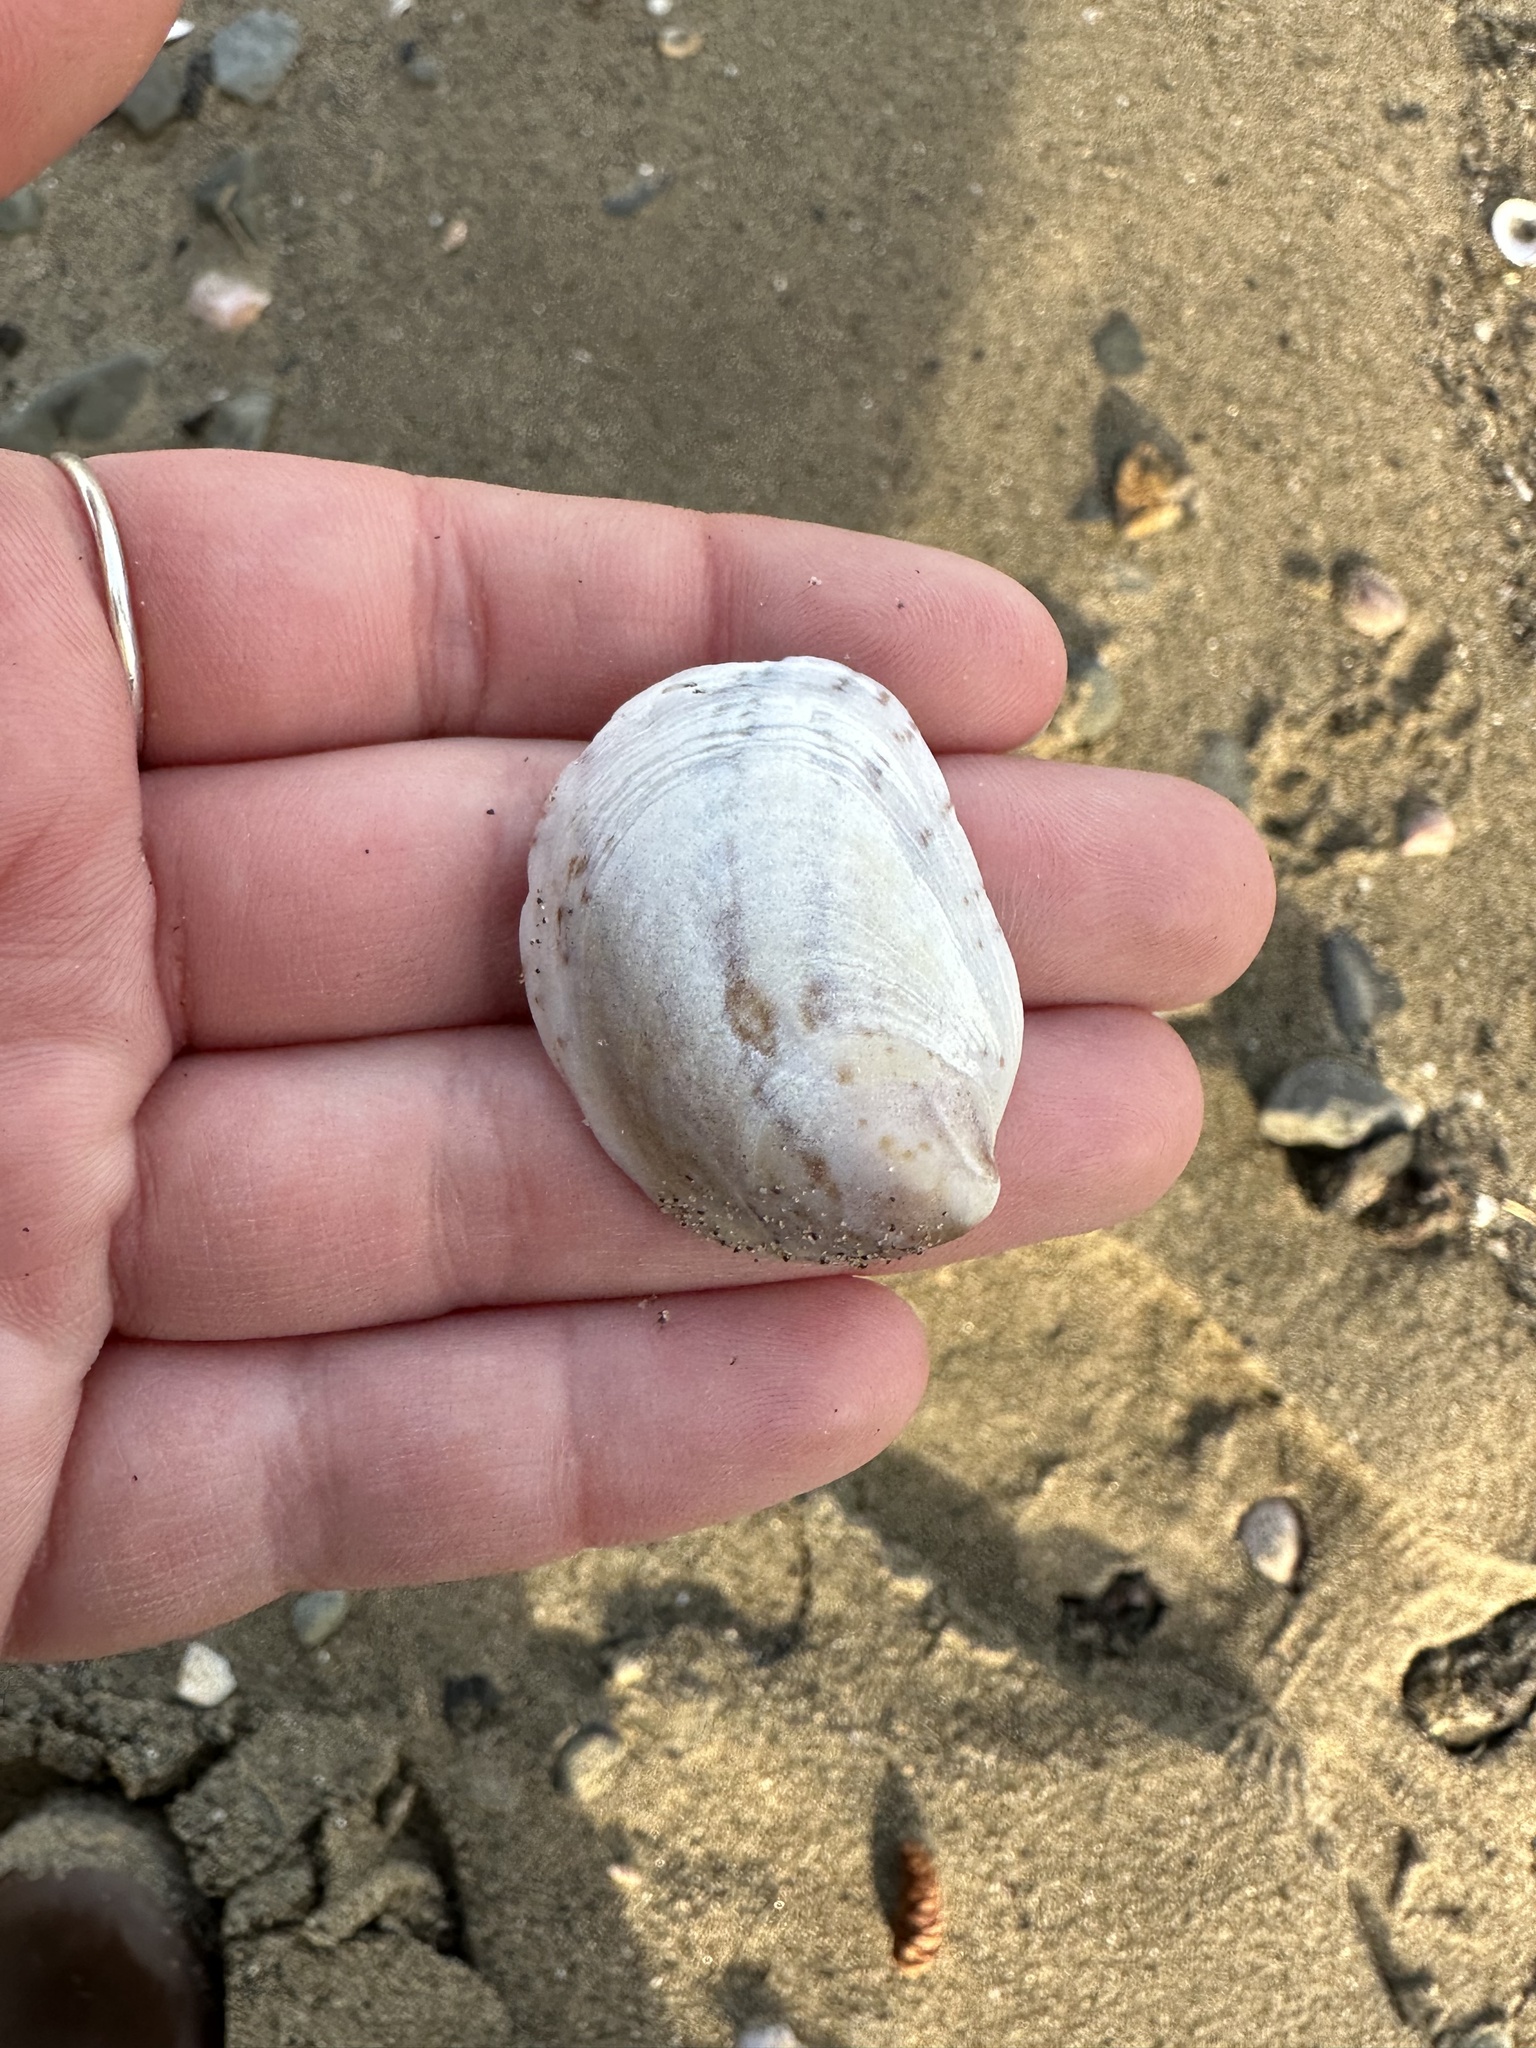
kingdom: Animalia
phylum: Mollusca
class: Gastropoda
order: Littorinimorpha
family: Calyptraeidae
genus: Crepidula
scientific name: Crepidula fornicata
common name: Slipper limpet
